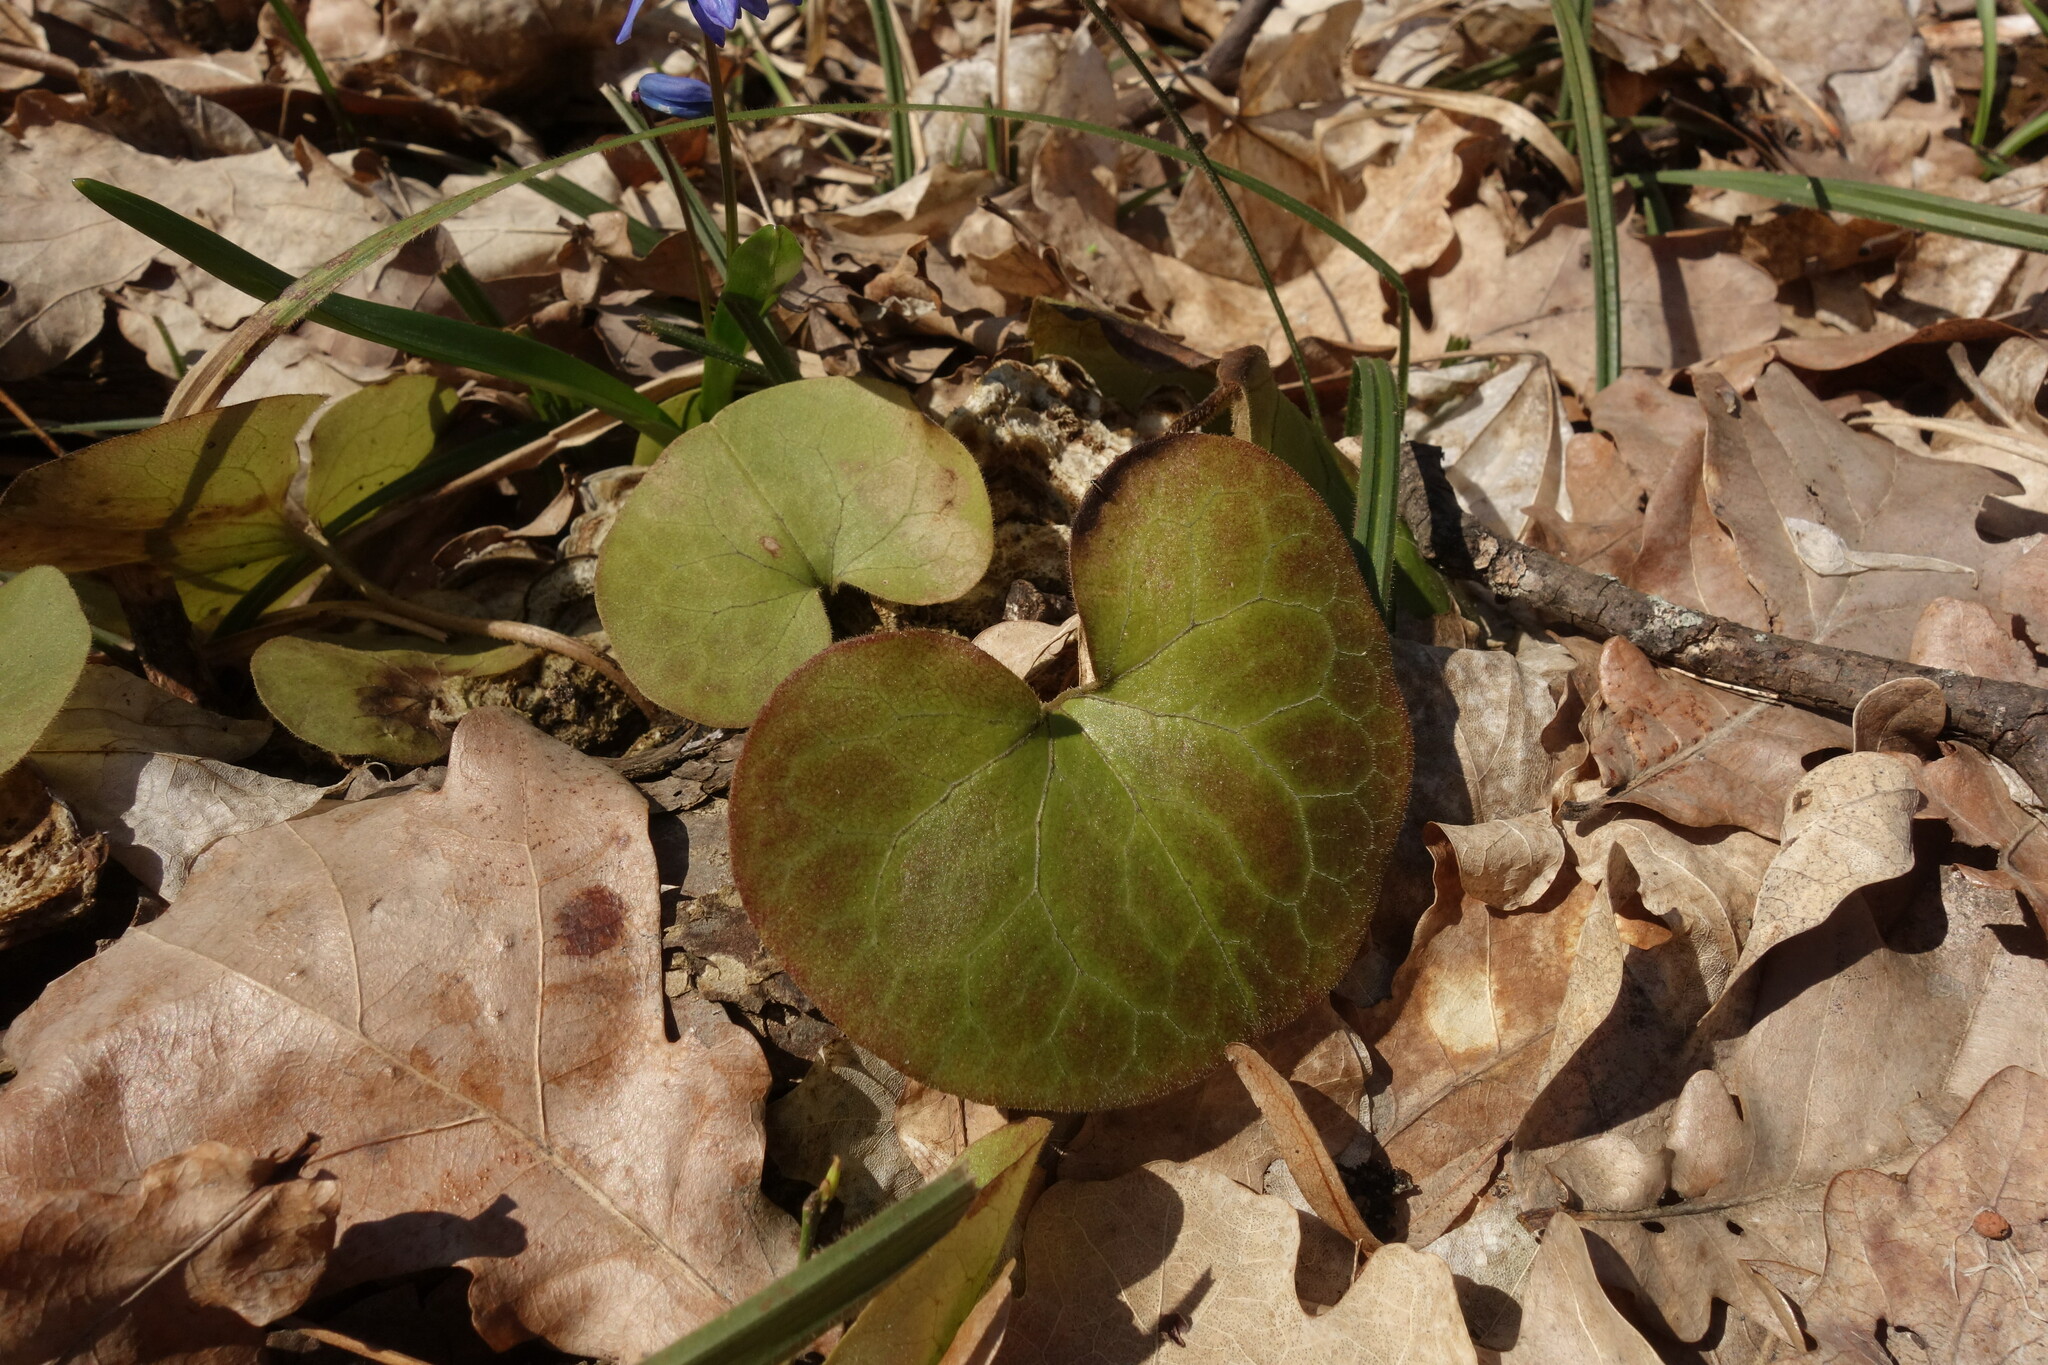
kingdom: Plantae
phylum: Tracheophyta
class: Magnoliopsida
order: Piperales
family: Aristolochiaceae
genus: Asarum
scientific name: Asarum europaeum
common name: Asarabacca
